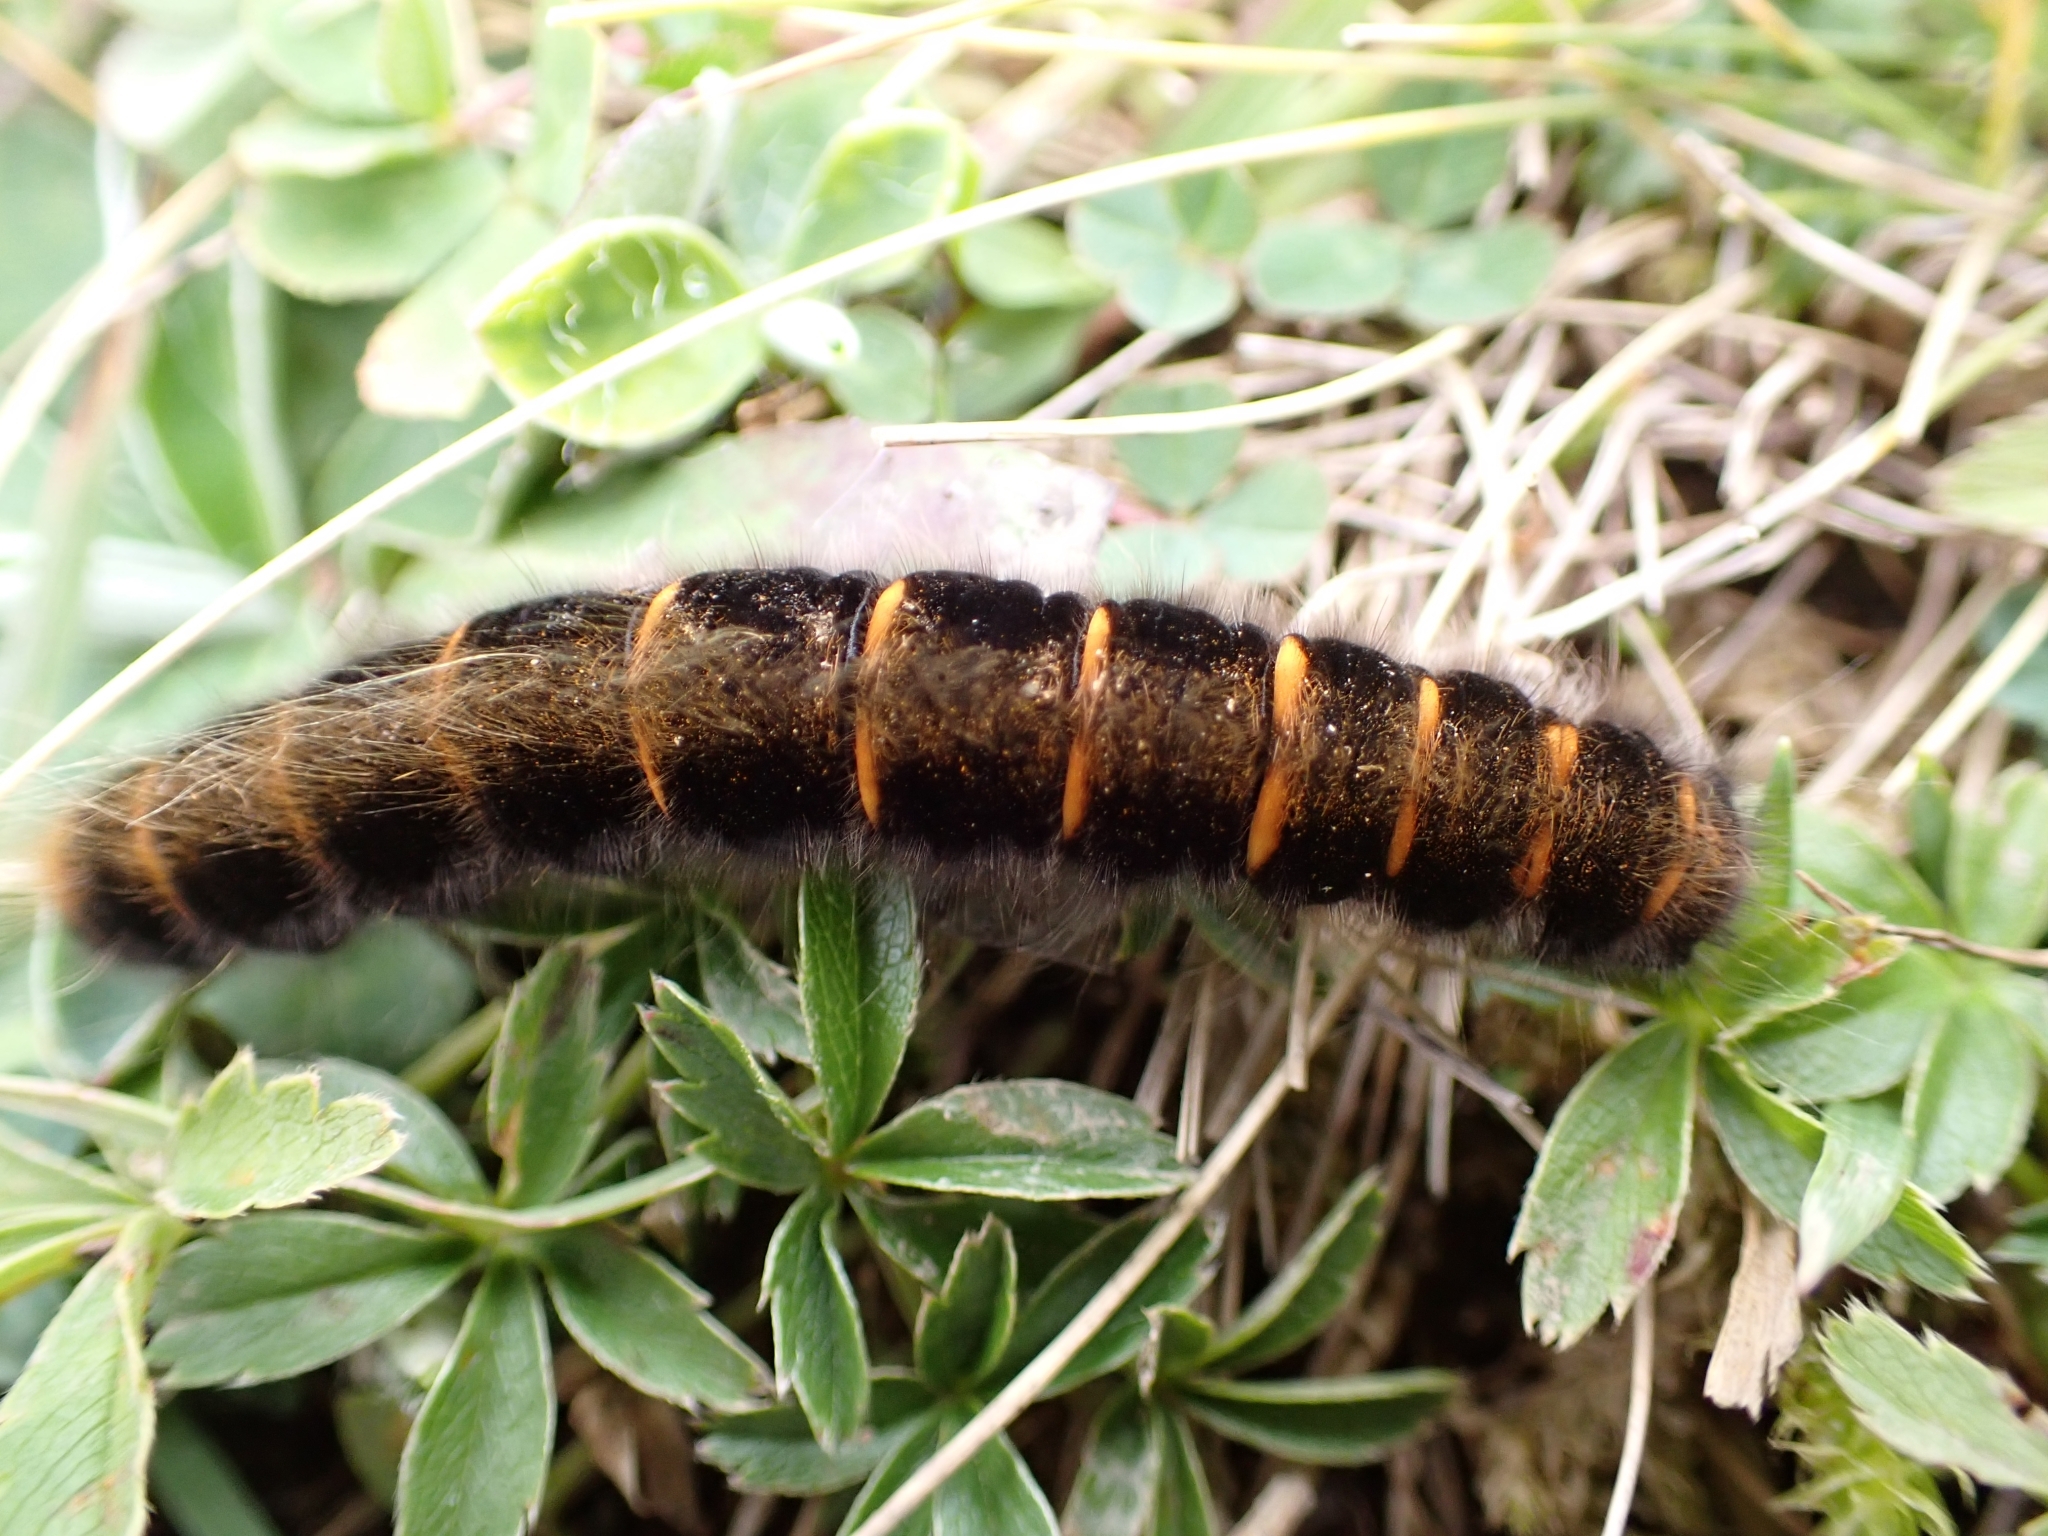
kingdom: Animalia
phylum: Arthropoda
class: Insecta
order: Lepidoptera
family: Lasiocampidae
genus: Macrothylacia
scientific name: Macrothylacia rubi
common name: Fox moth
